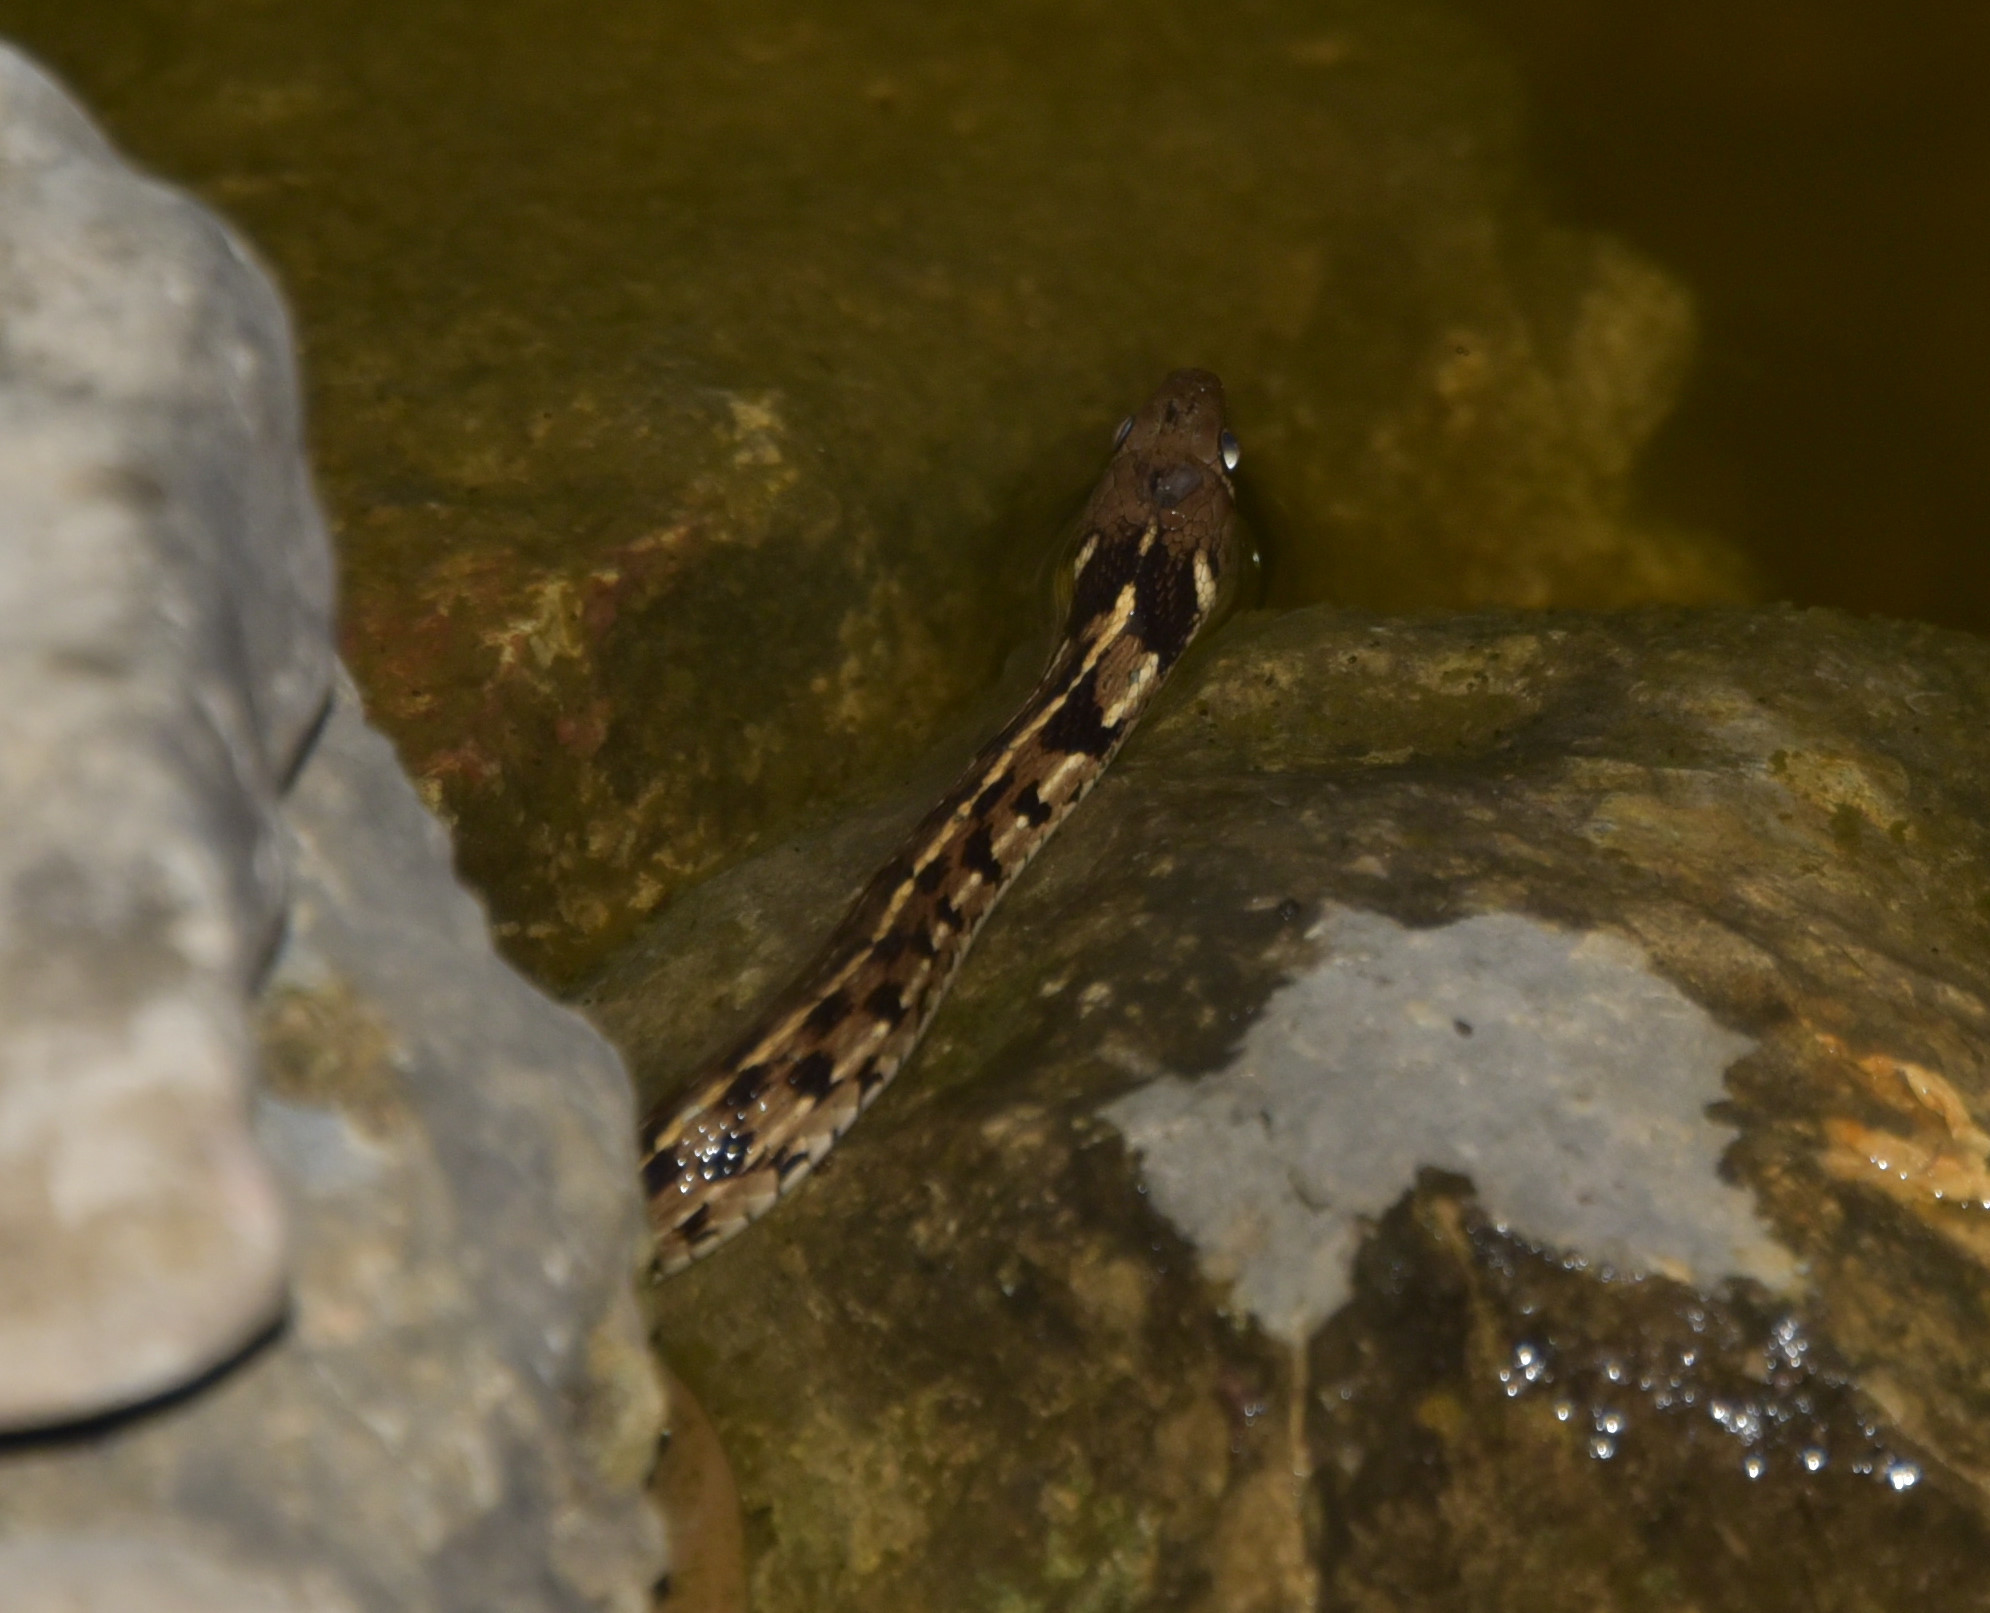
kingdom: Animalia
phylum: Chordata
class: Squamata
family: Colubridae
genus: Thamnophis
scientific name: Thamnophis marcianus
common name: Checkered garter snake
